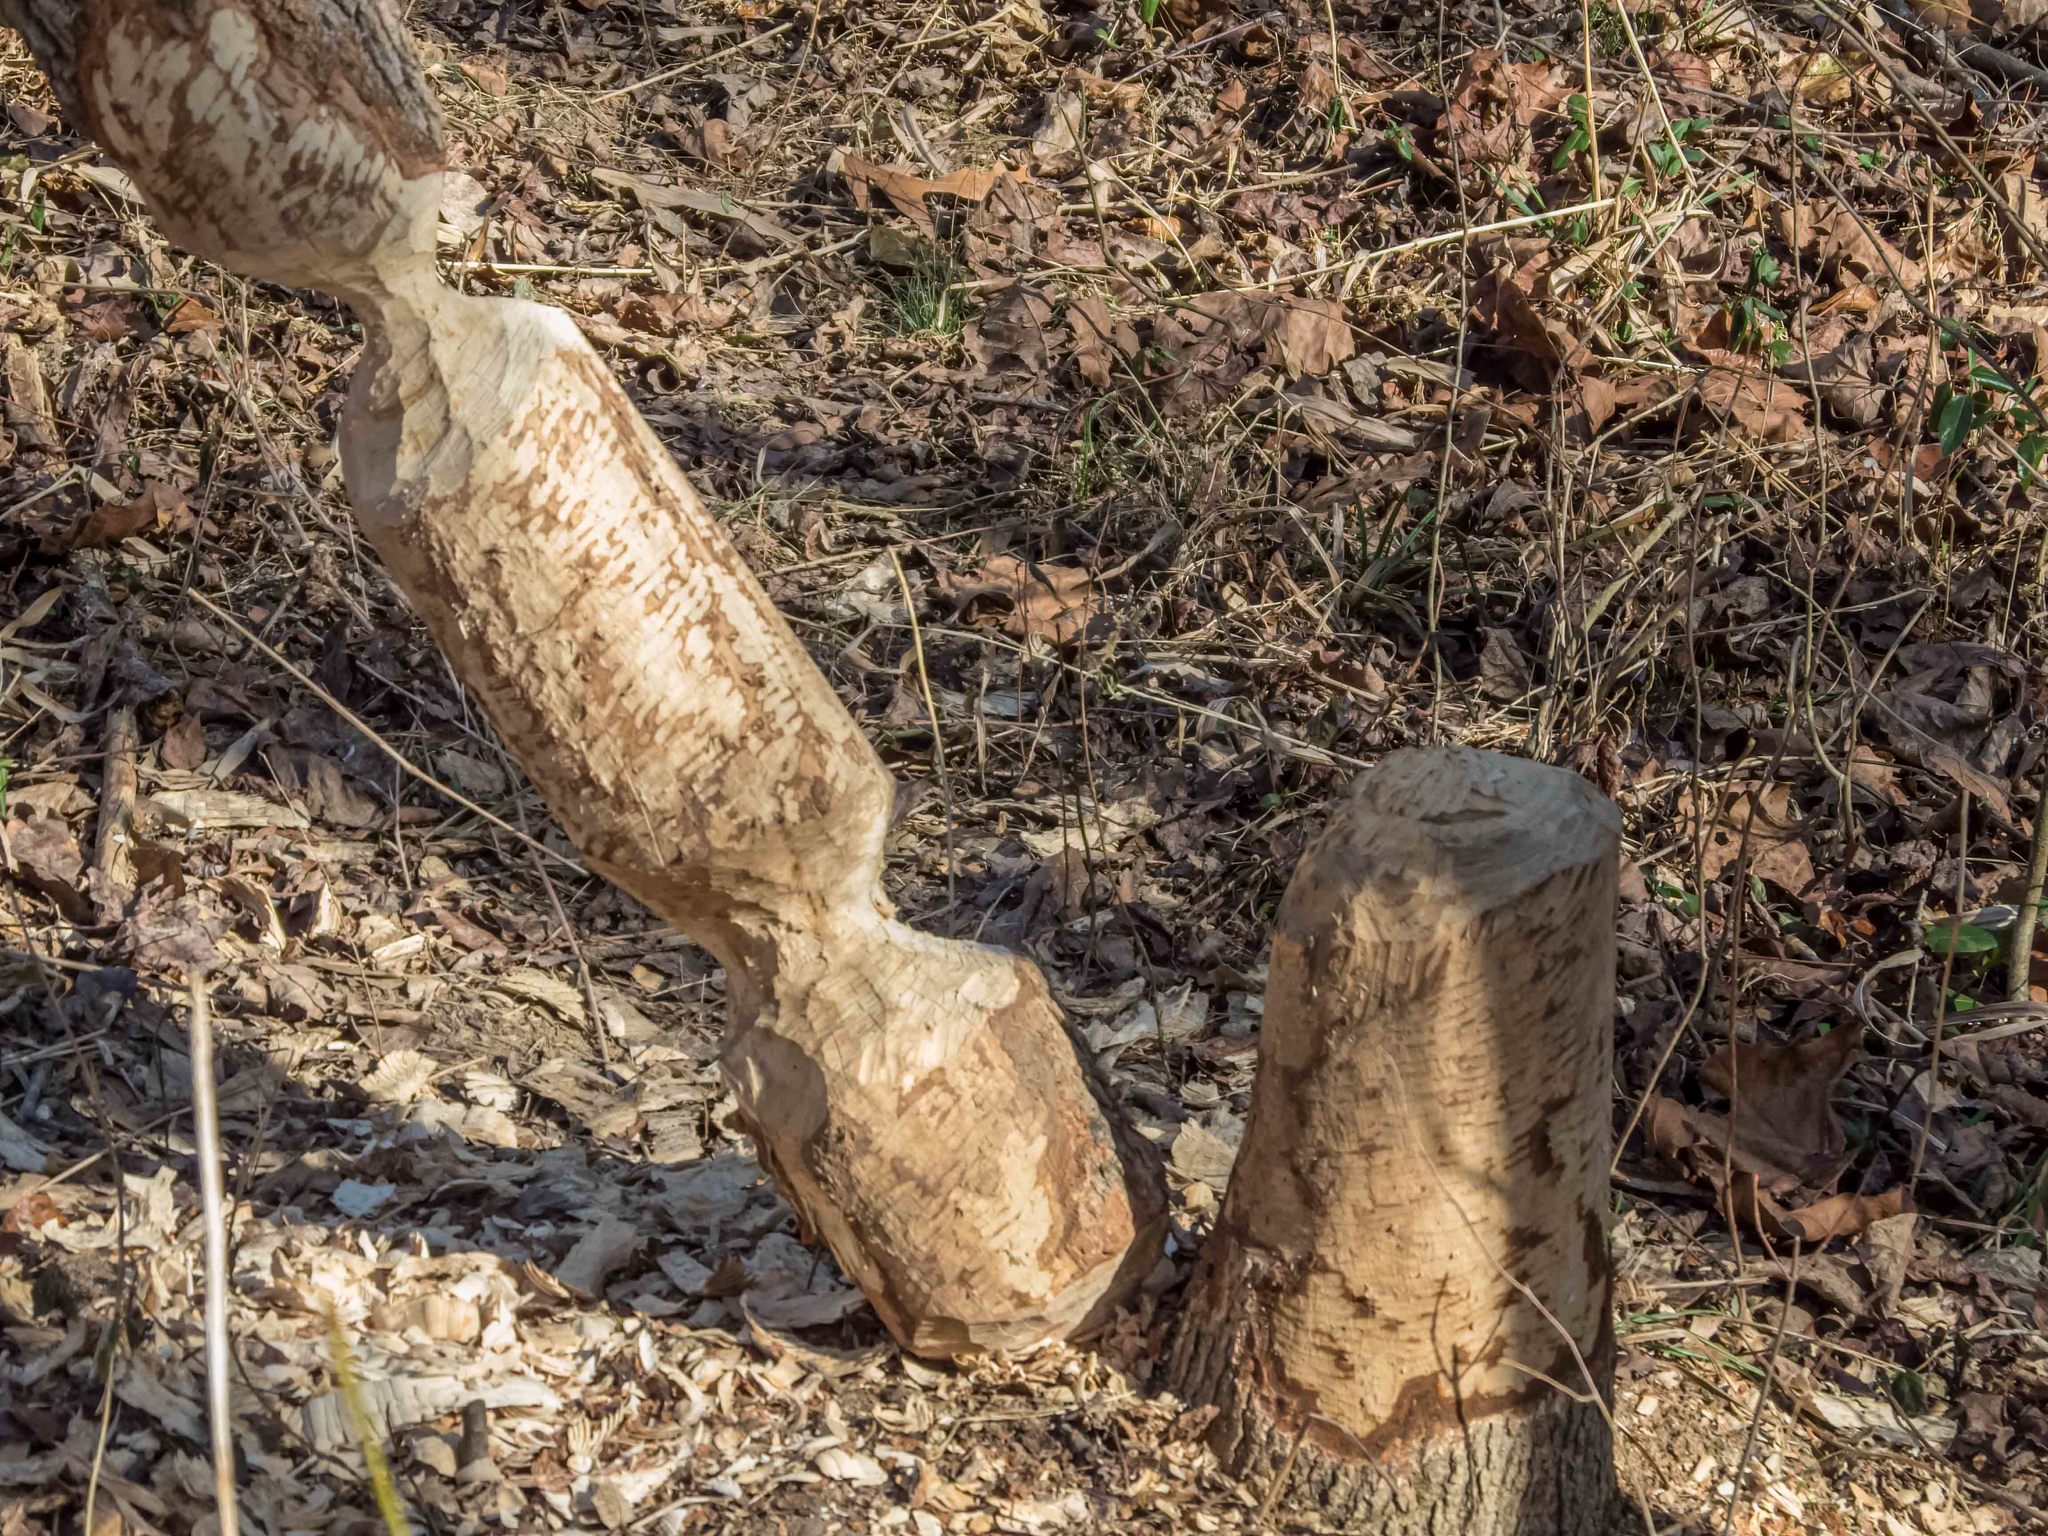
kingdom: Animalia
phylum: Chordata
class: Mammalia
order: Rodentia
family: Castoridae
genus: Castor
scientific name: Castor canadensis
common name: American beaver
